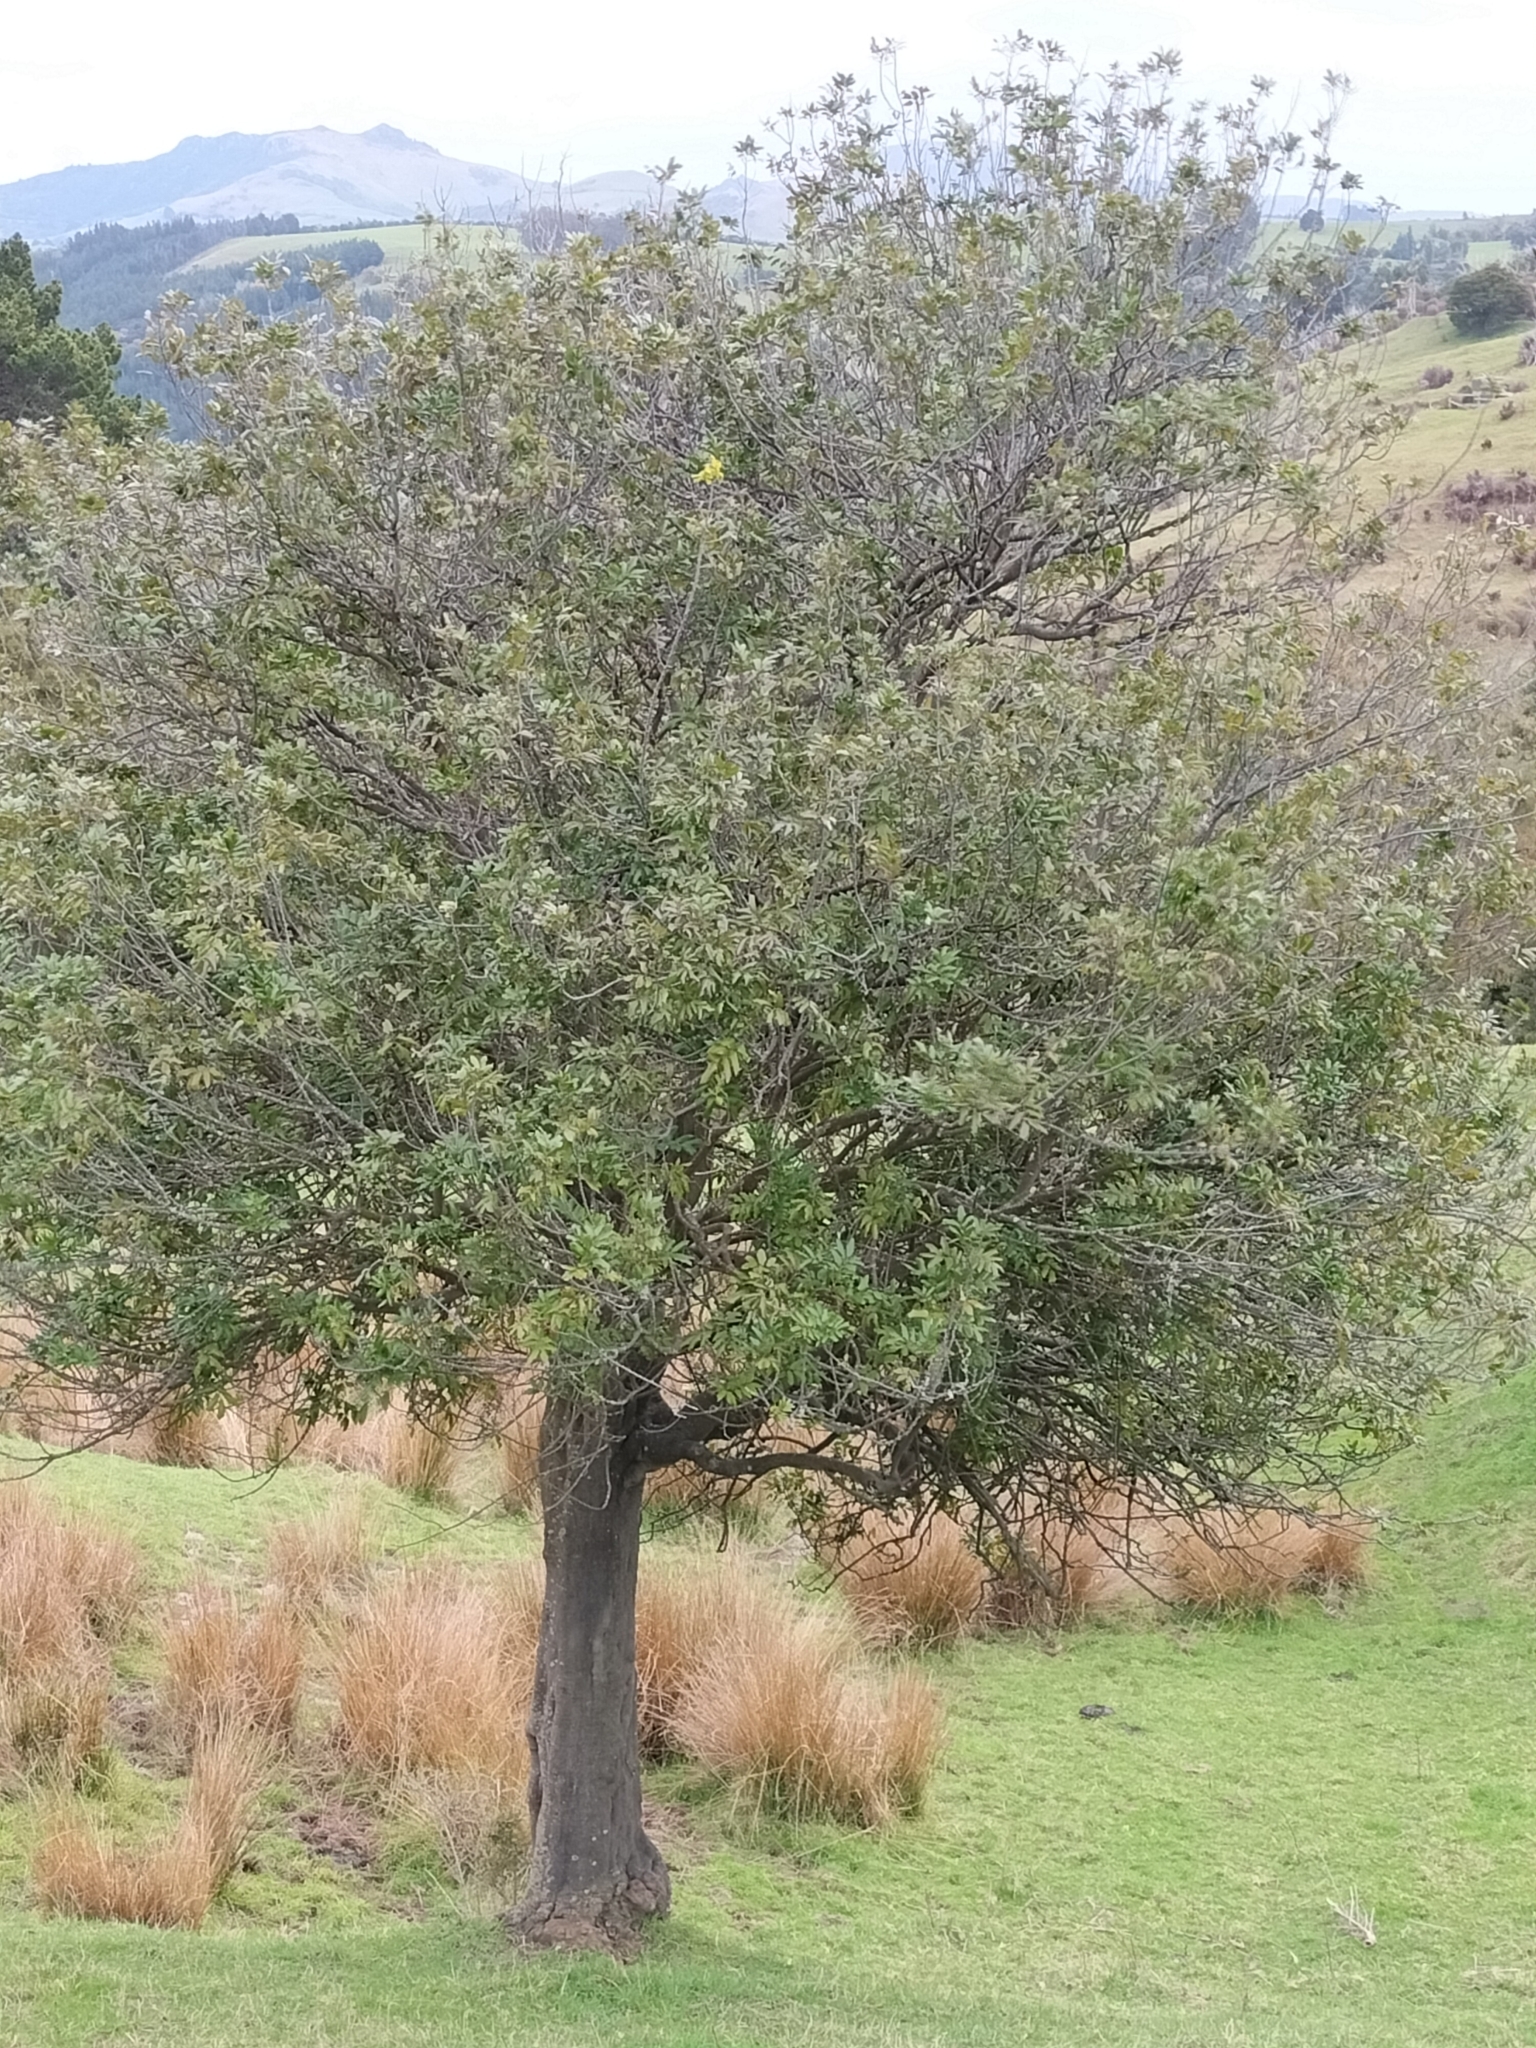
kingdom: Plantae
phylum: Tracheophyta
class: Magnoliopsida
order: Sapindales
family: Sapindaceae
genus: Alectryon
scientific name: Alectryon excelsus
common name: Three kings titoki
